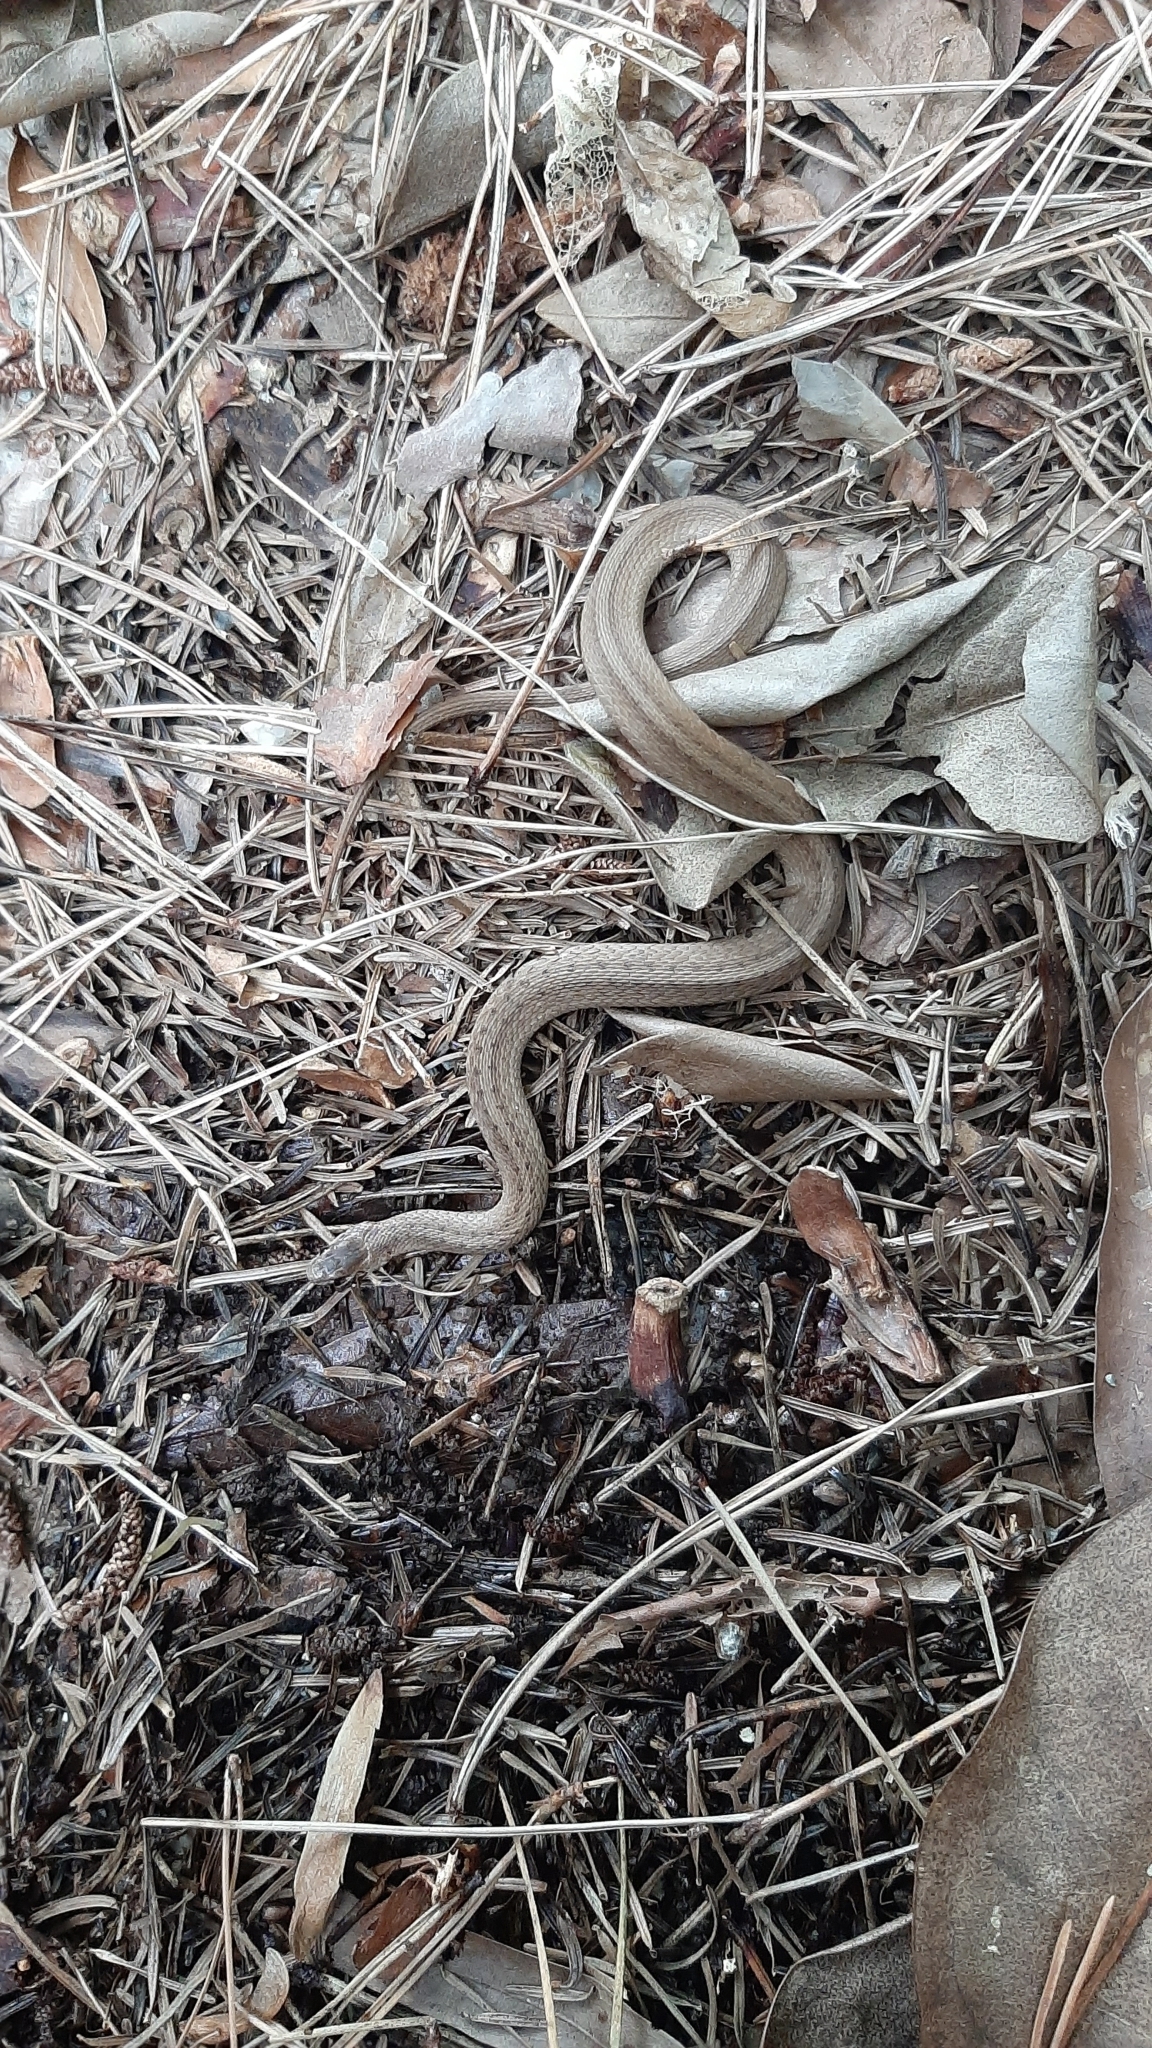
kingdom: Animalia
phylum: Chordata
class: Squamata
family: Colubridae
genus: Storeria
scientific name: Storeria dekayi
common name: (dekay’s) brown snake
